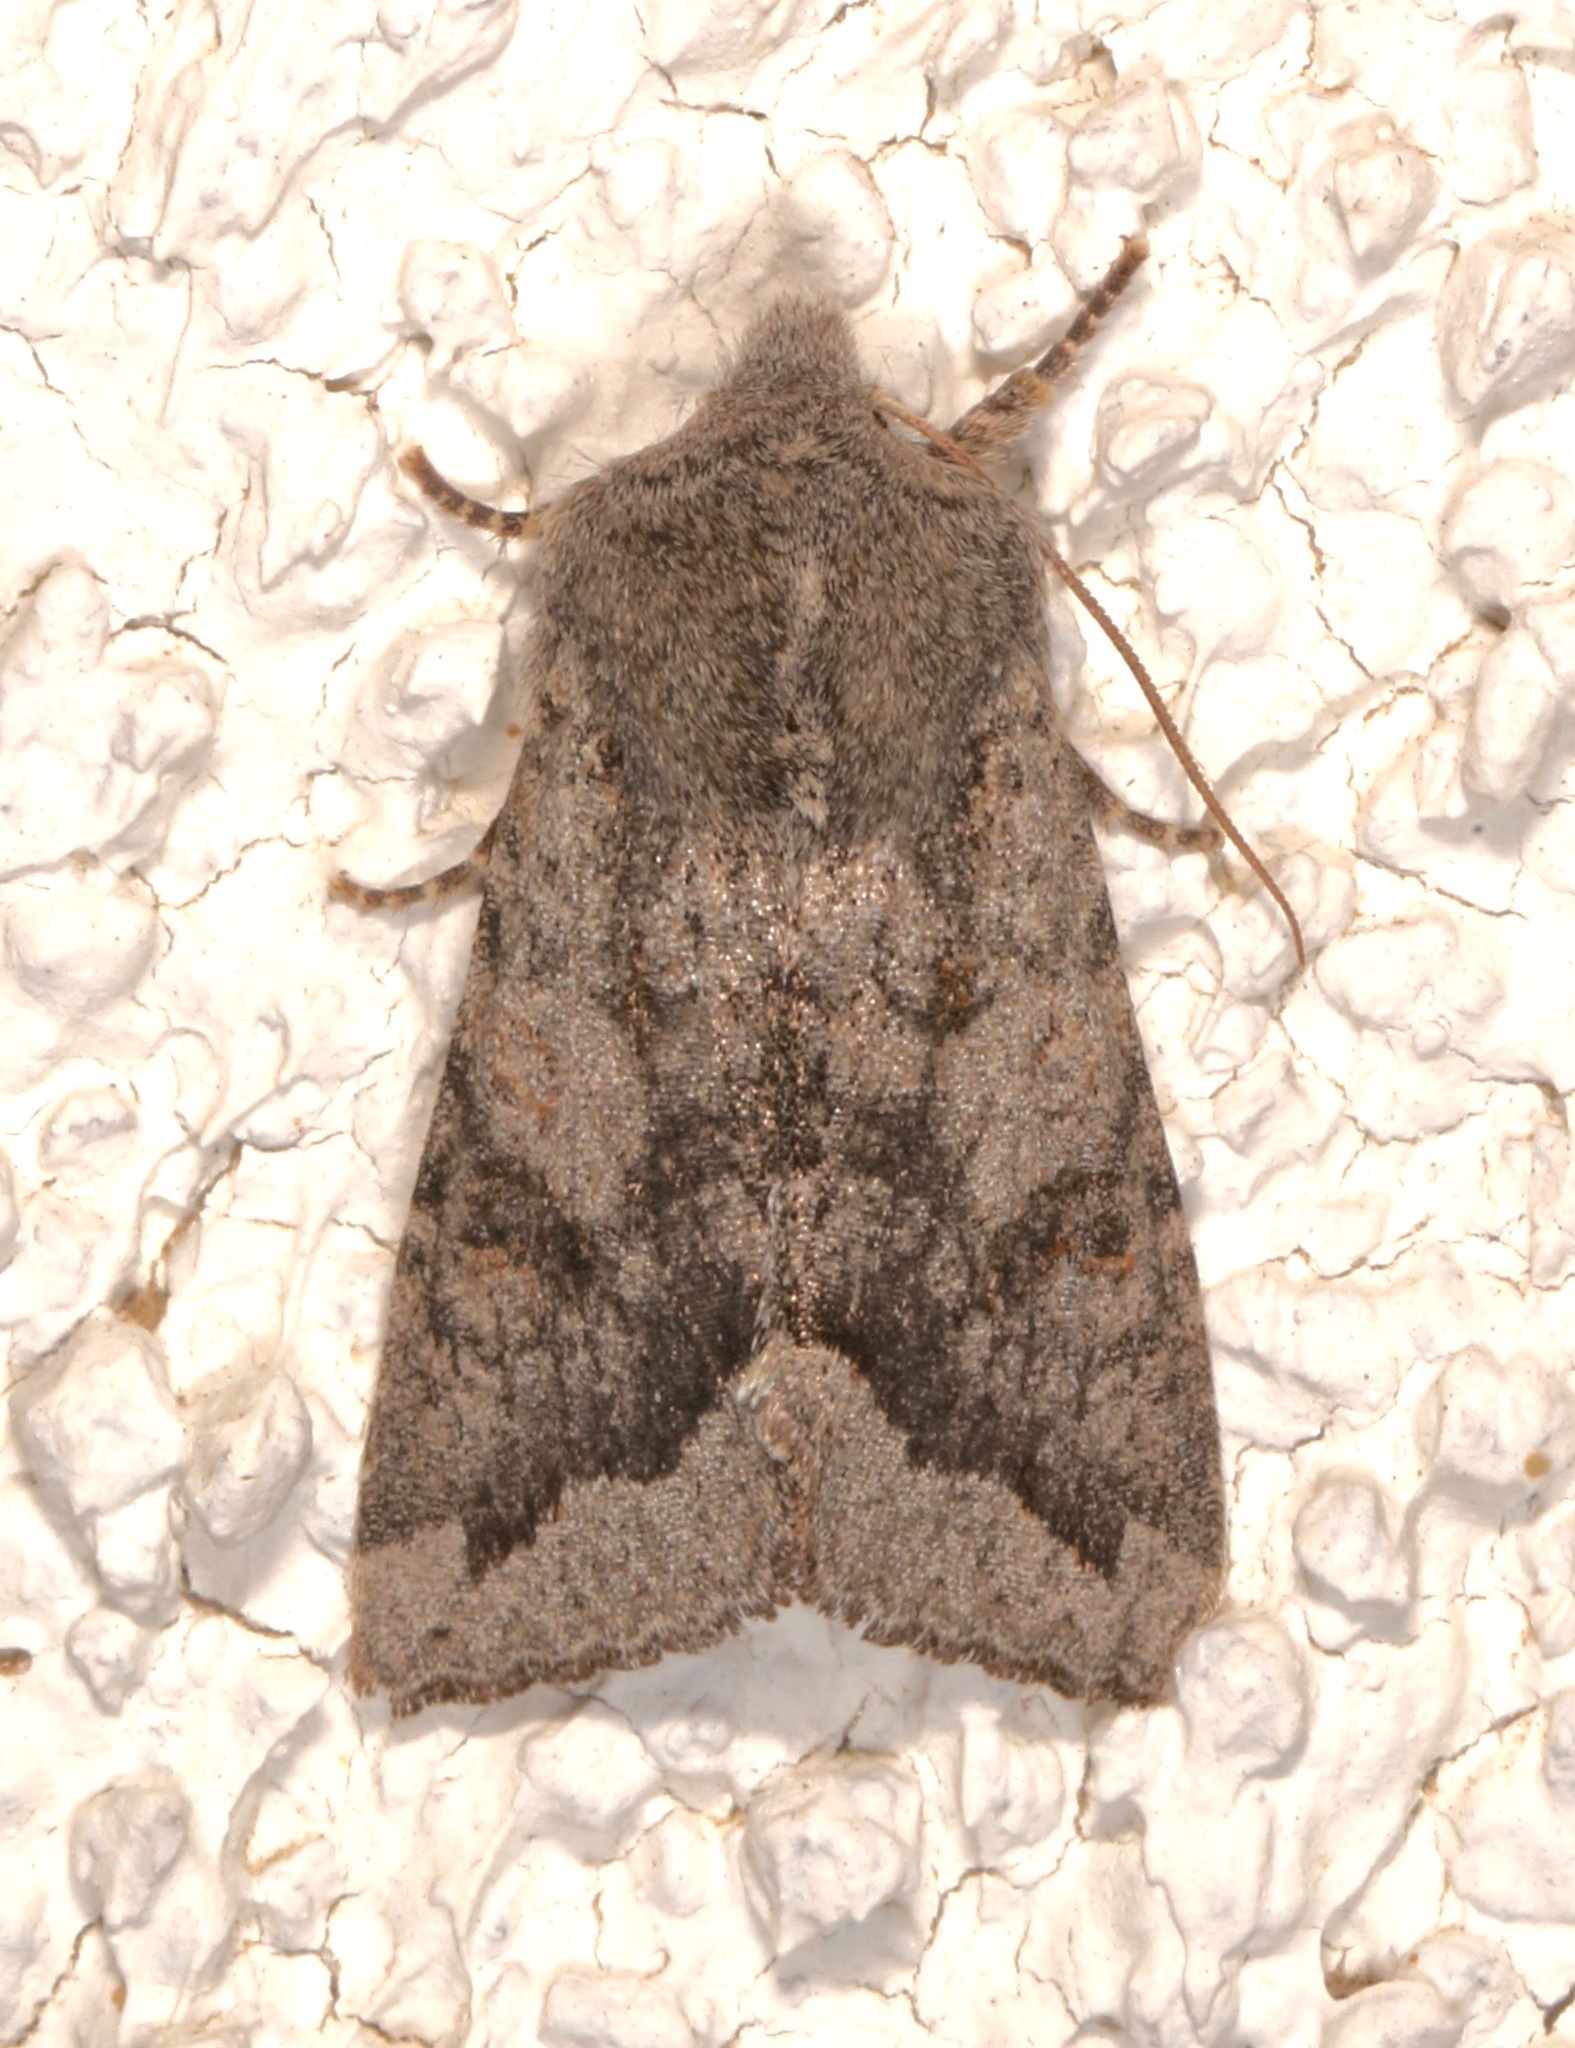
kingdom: Animalia
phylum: Arthropoda
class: Insecta
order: Lepidoptera
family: Noctuidae
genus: Orthosia
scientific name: Orthosia erythrolita
